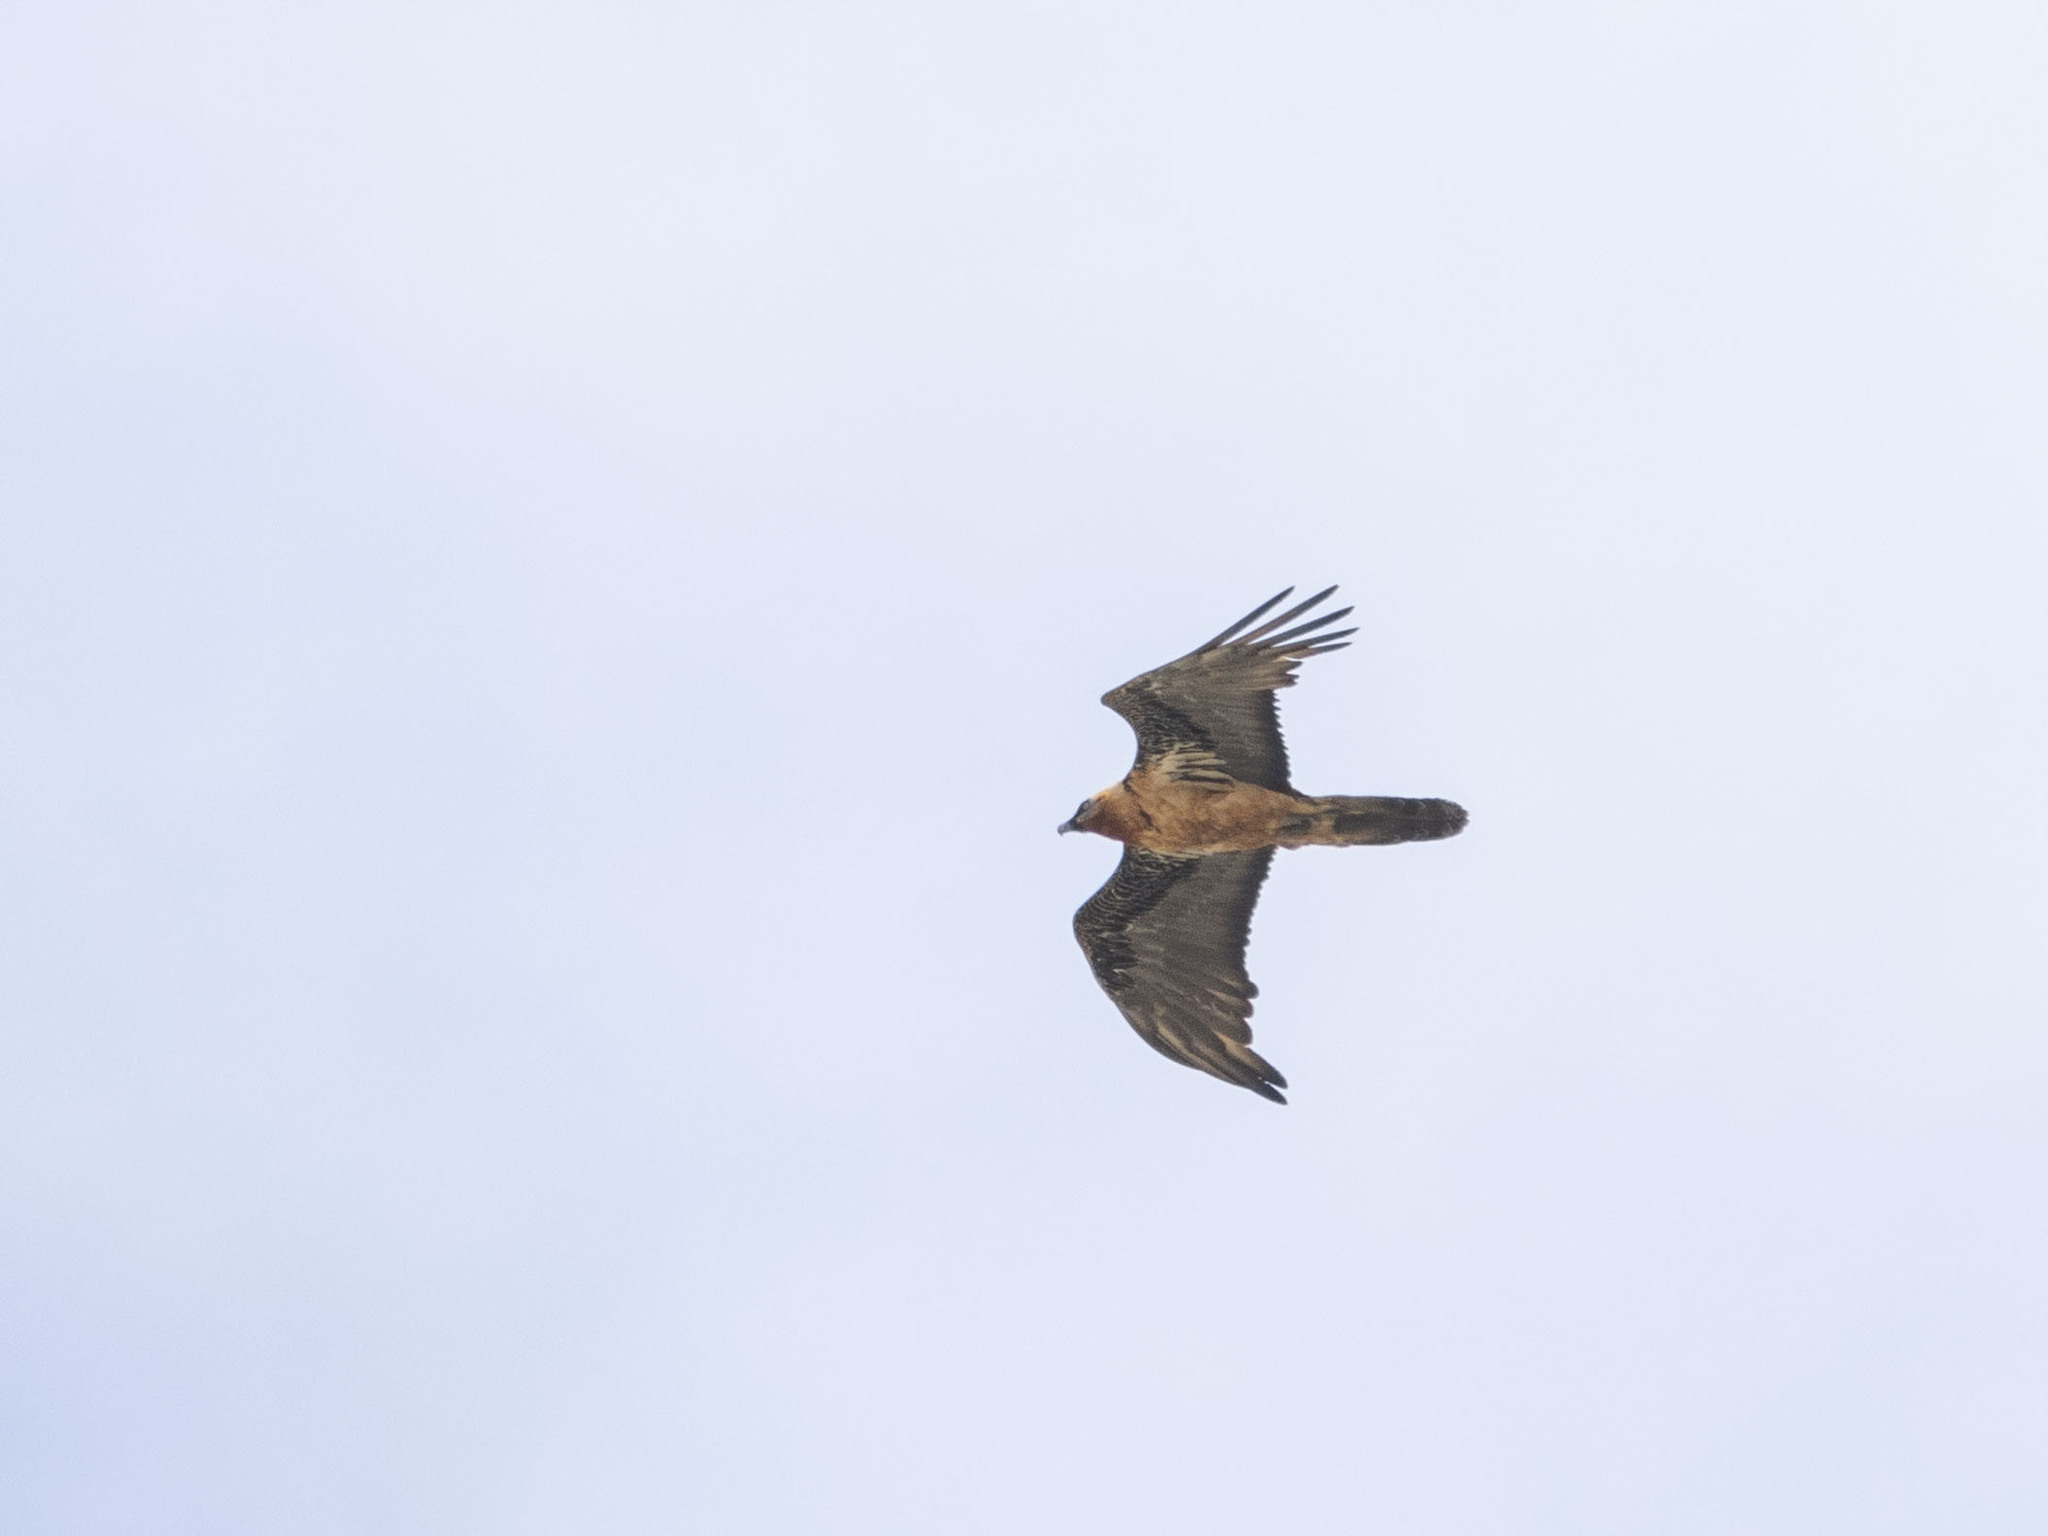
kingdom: Animalia
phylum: Chordata
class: Aves
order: Accipitriformes
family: Accipitridae
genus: Gypaetus
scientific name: Gypaetus barbatus
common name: Bearded vulture
